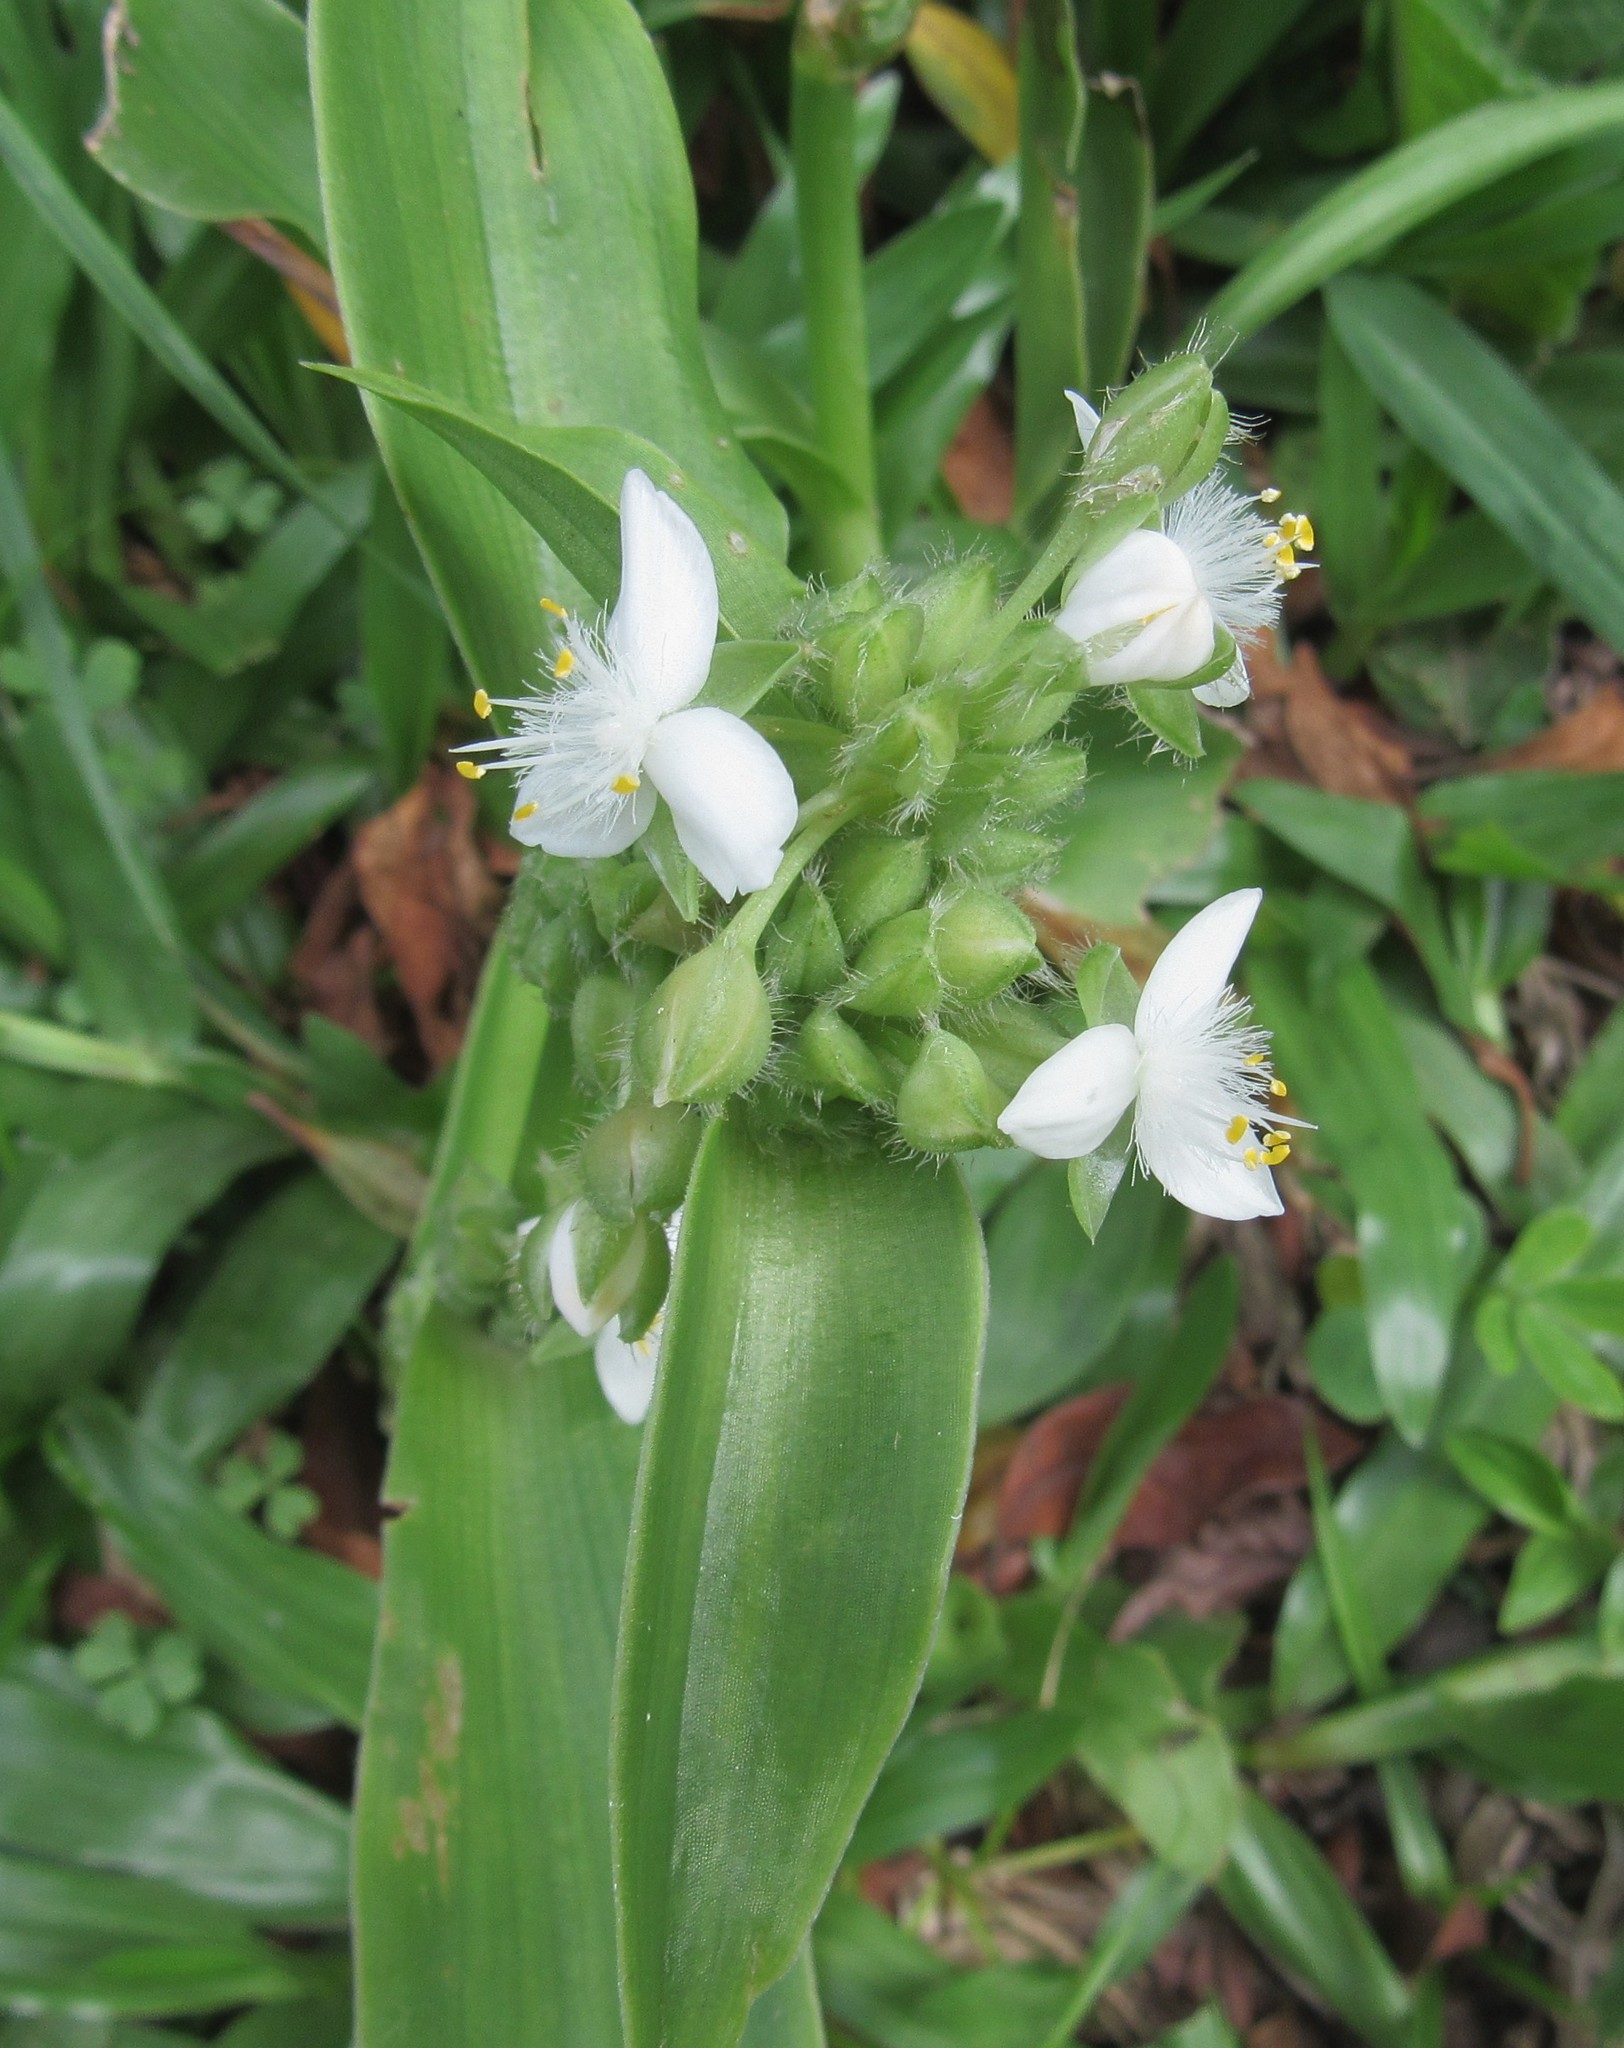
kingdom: Plantae
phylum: Tracheophyta
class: Liliopsida
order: Commelinales
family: Commelinaceae
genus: Tradescantia
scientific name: Tradescantia crassula
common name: Succulent spiderwort
